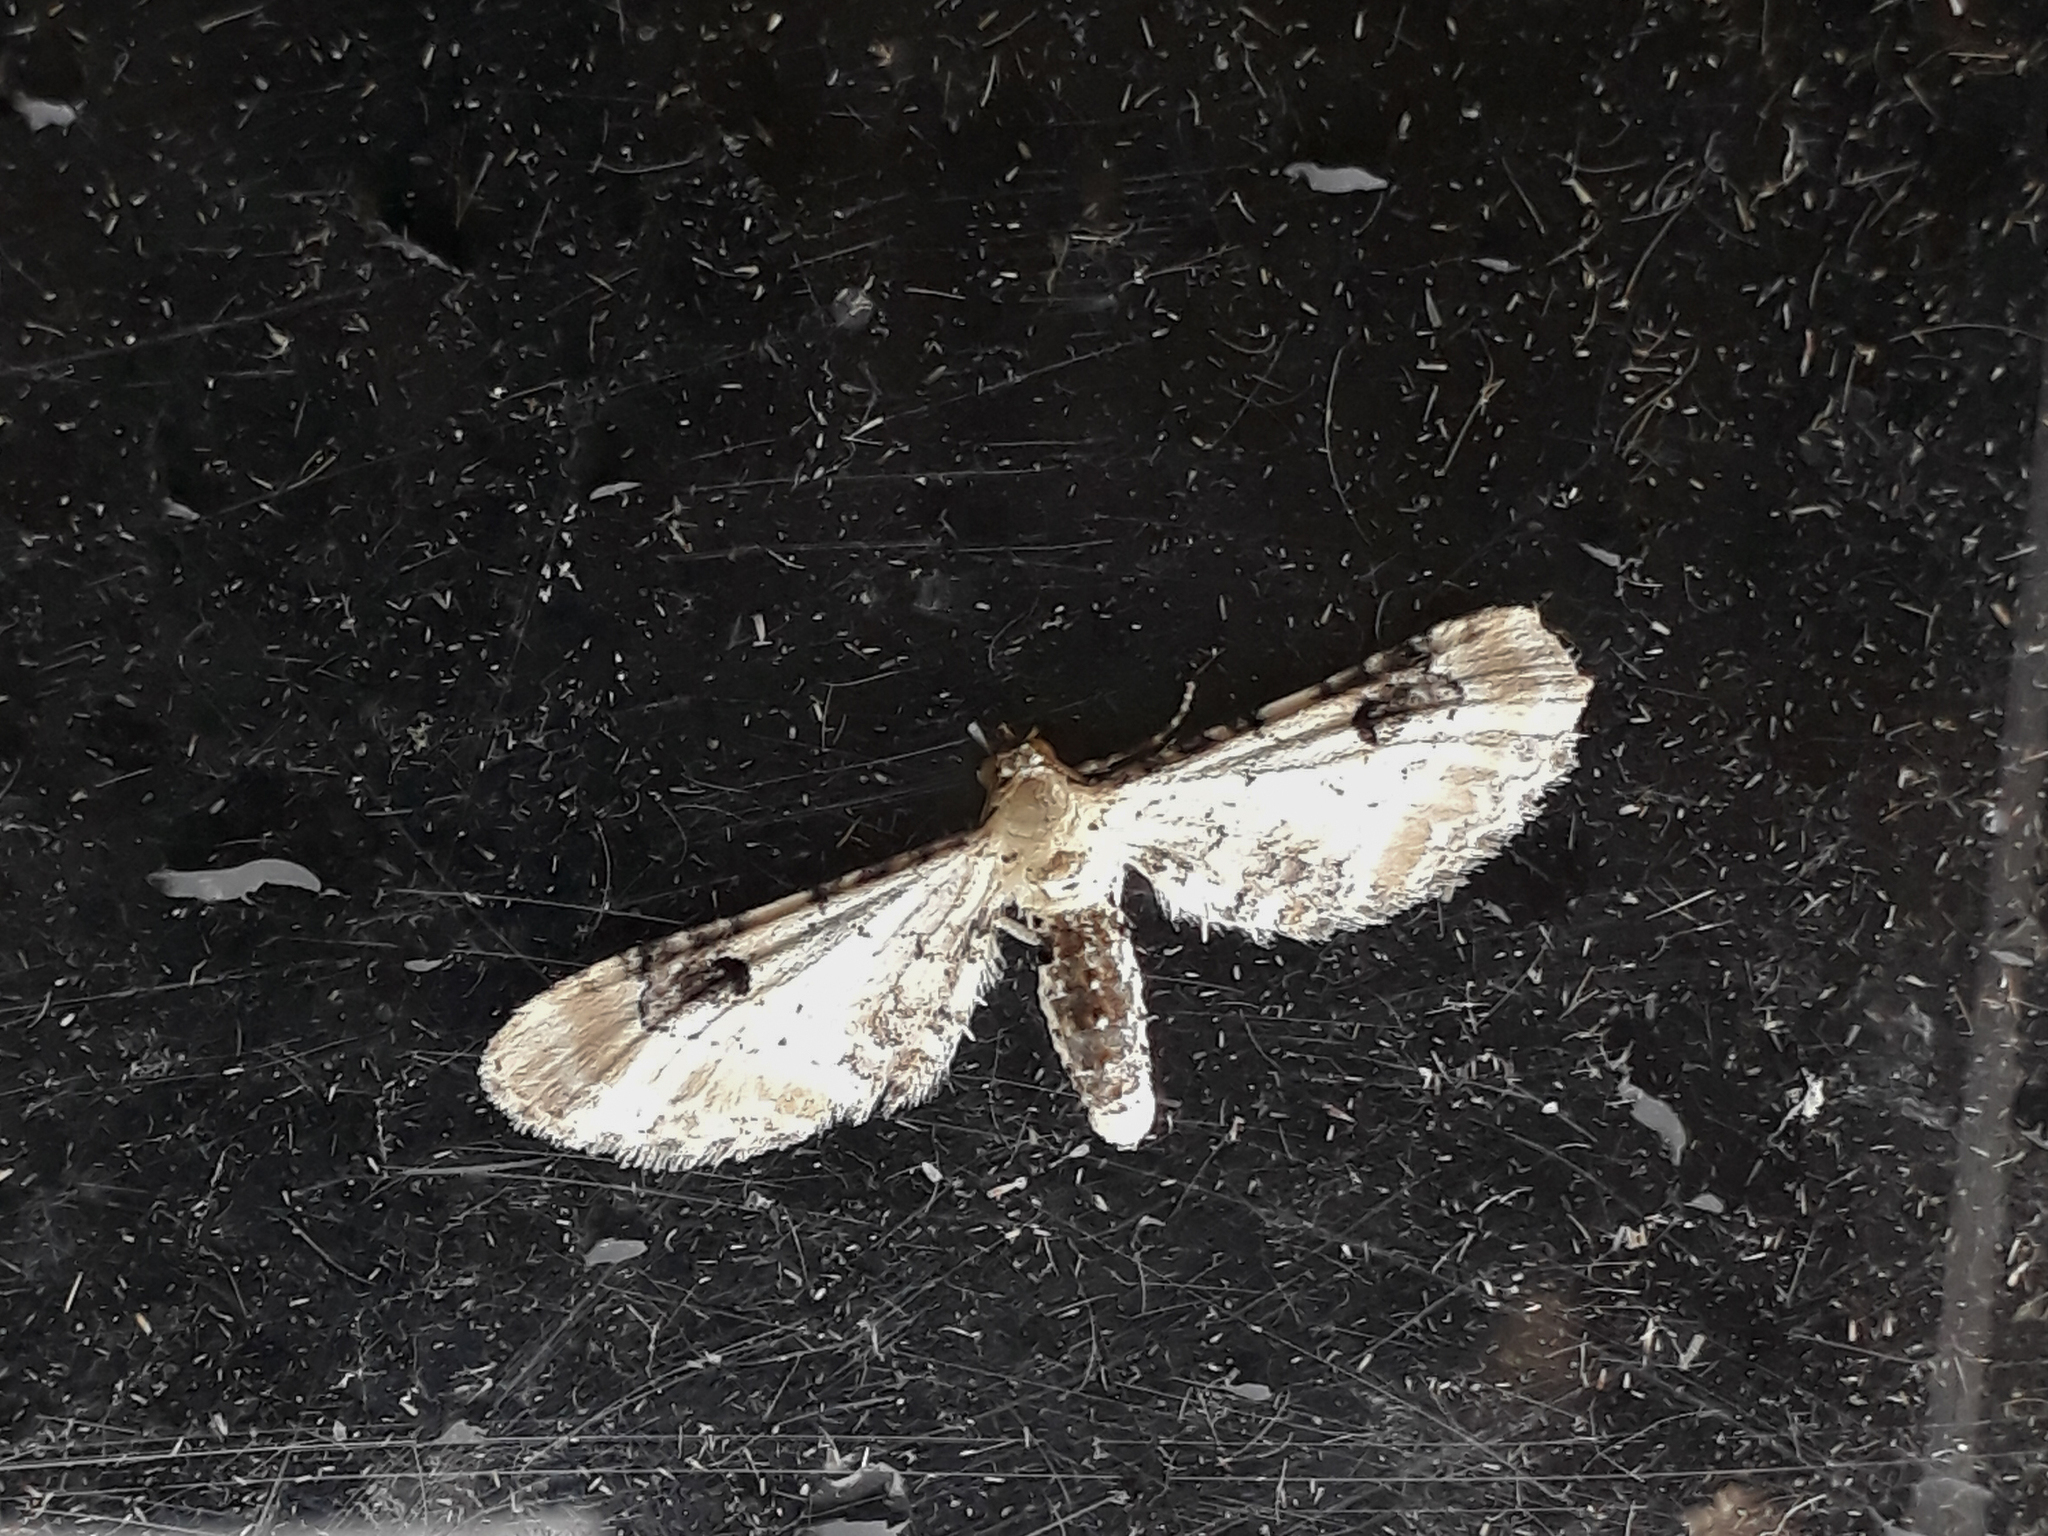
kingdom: Animalia
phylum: Arthropoda
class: Insecta
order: Lepidoptera
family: Geometridae
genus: Eupithecia
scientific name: Eupithecia centaureata
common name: Lime-speck pug
